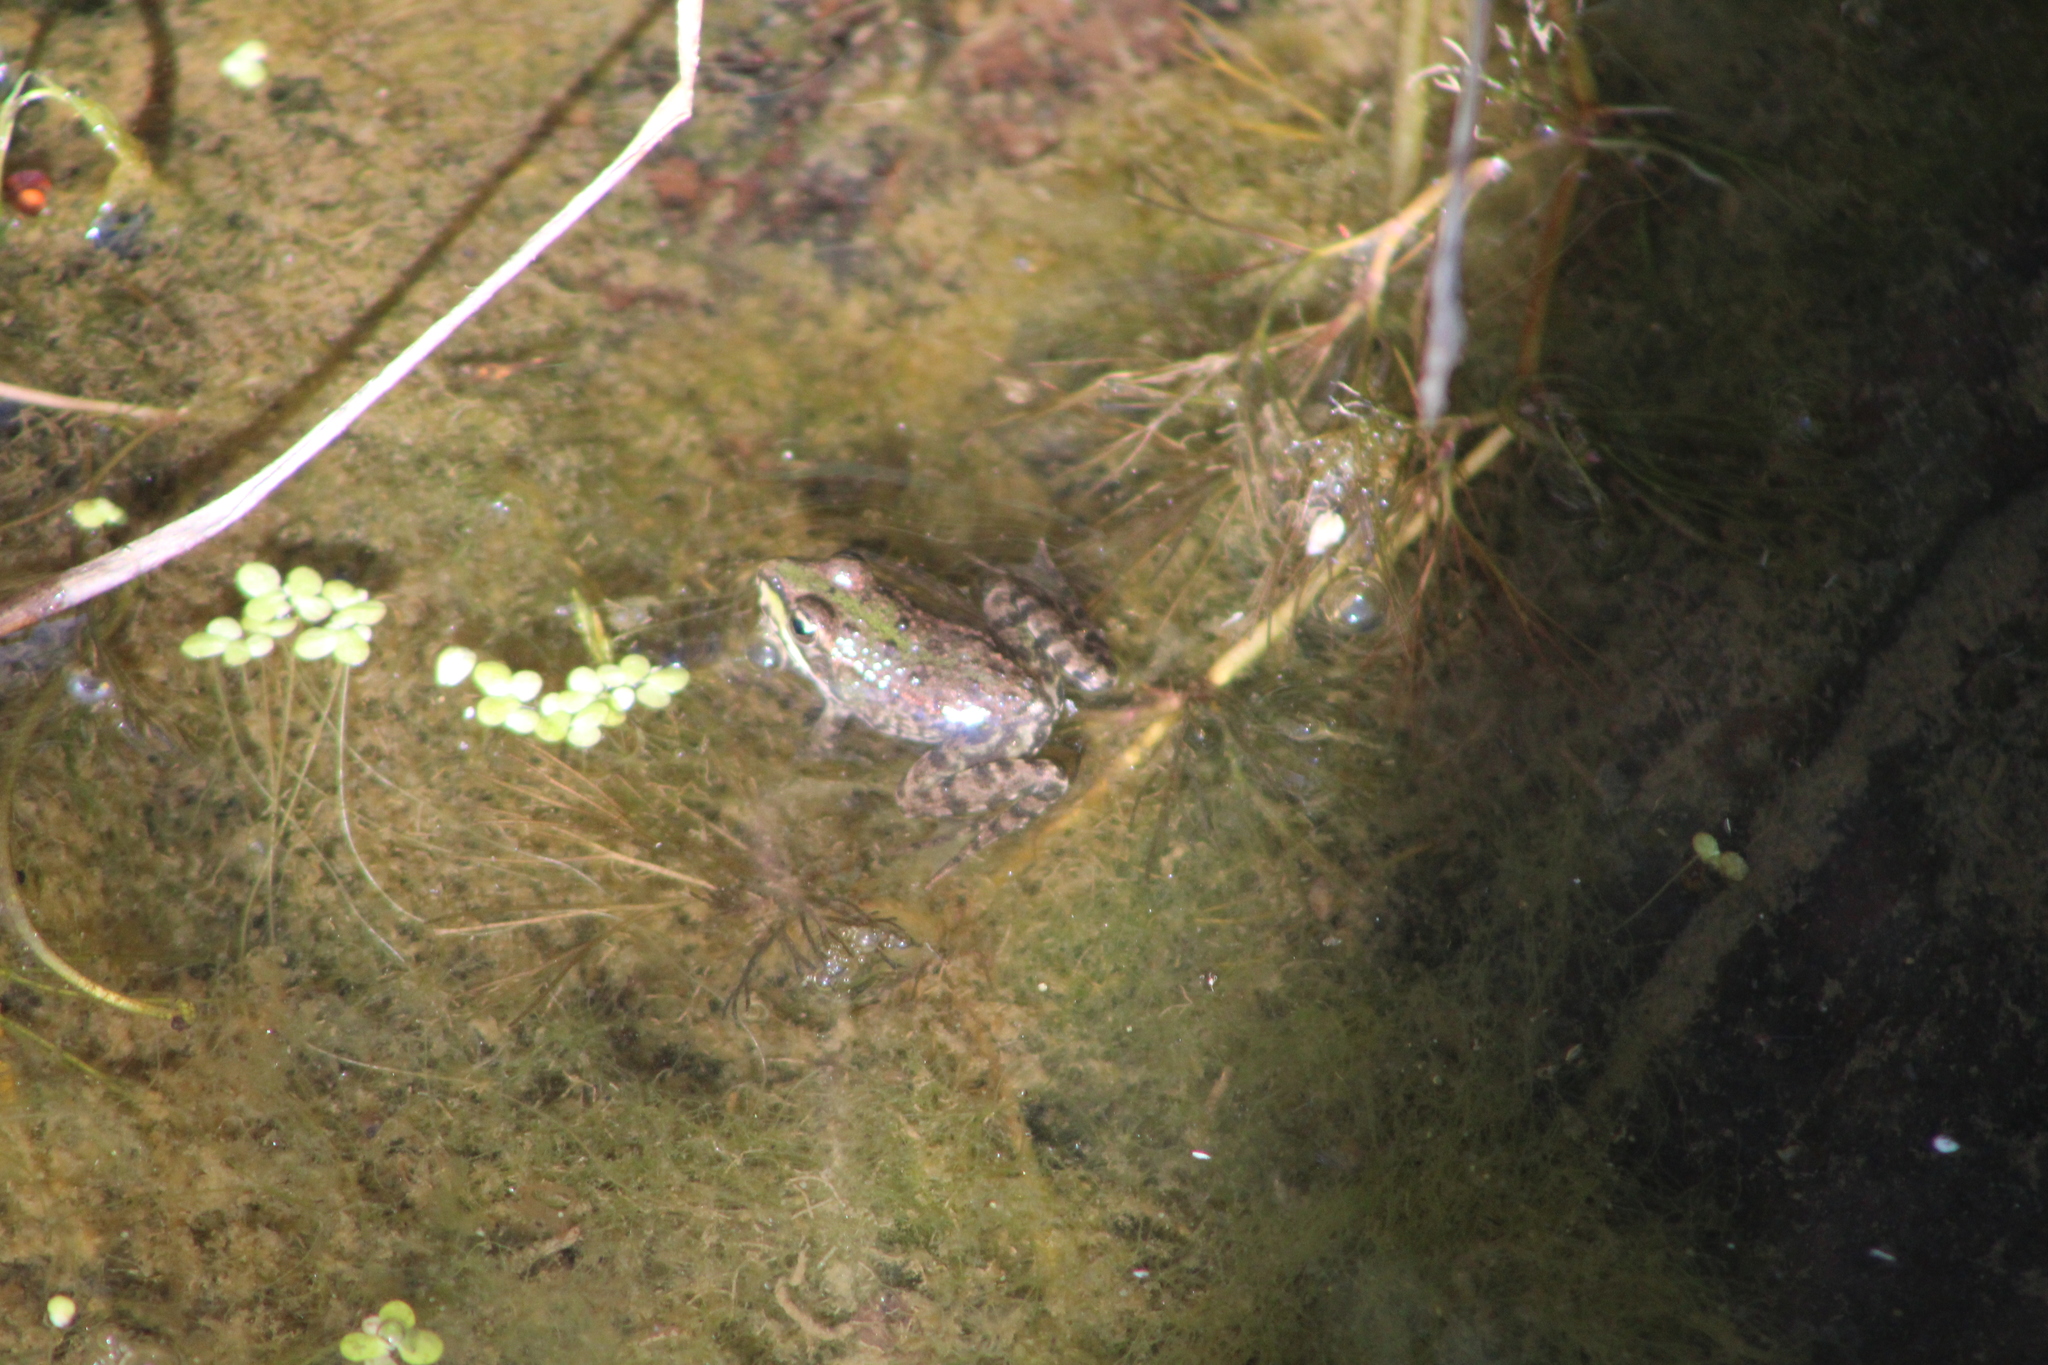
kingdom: Animalia
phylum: Chordata
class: Amphibia
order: Anura
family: Ranidae
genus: Pelophylax
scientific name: Pelophylax perezi
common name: Perez's frog
